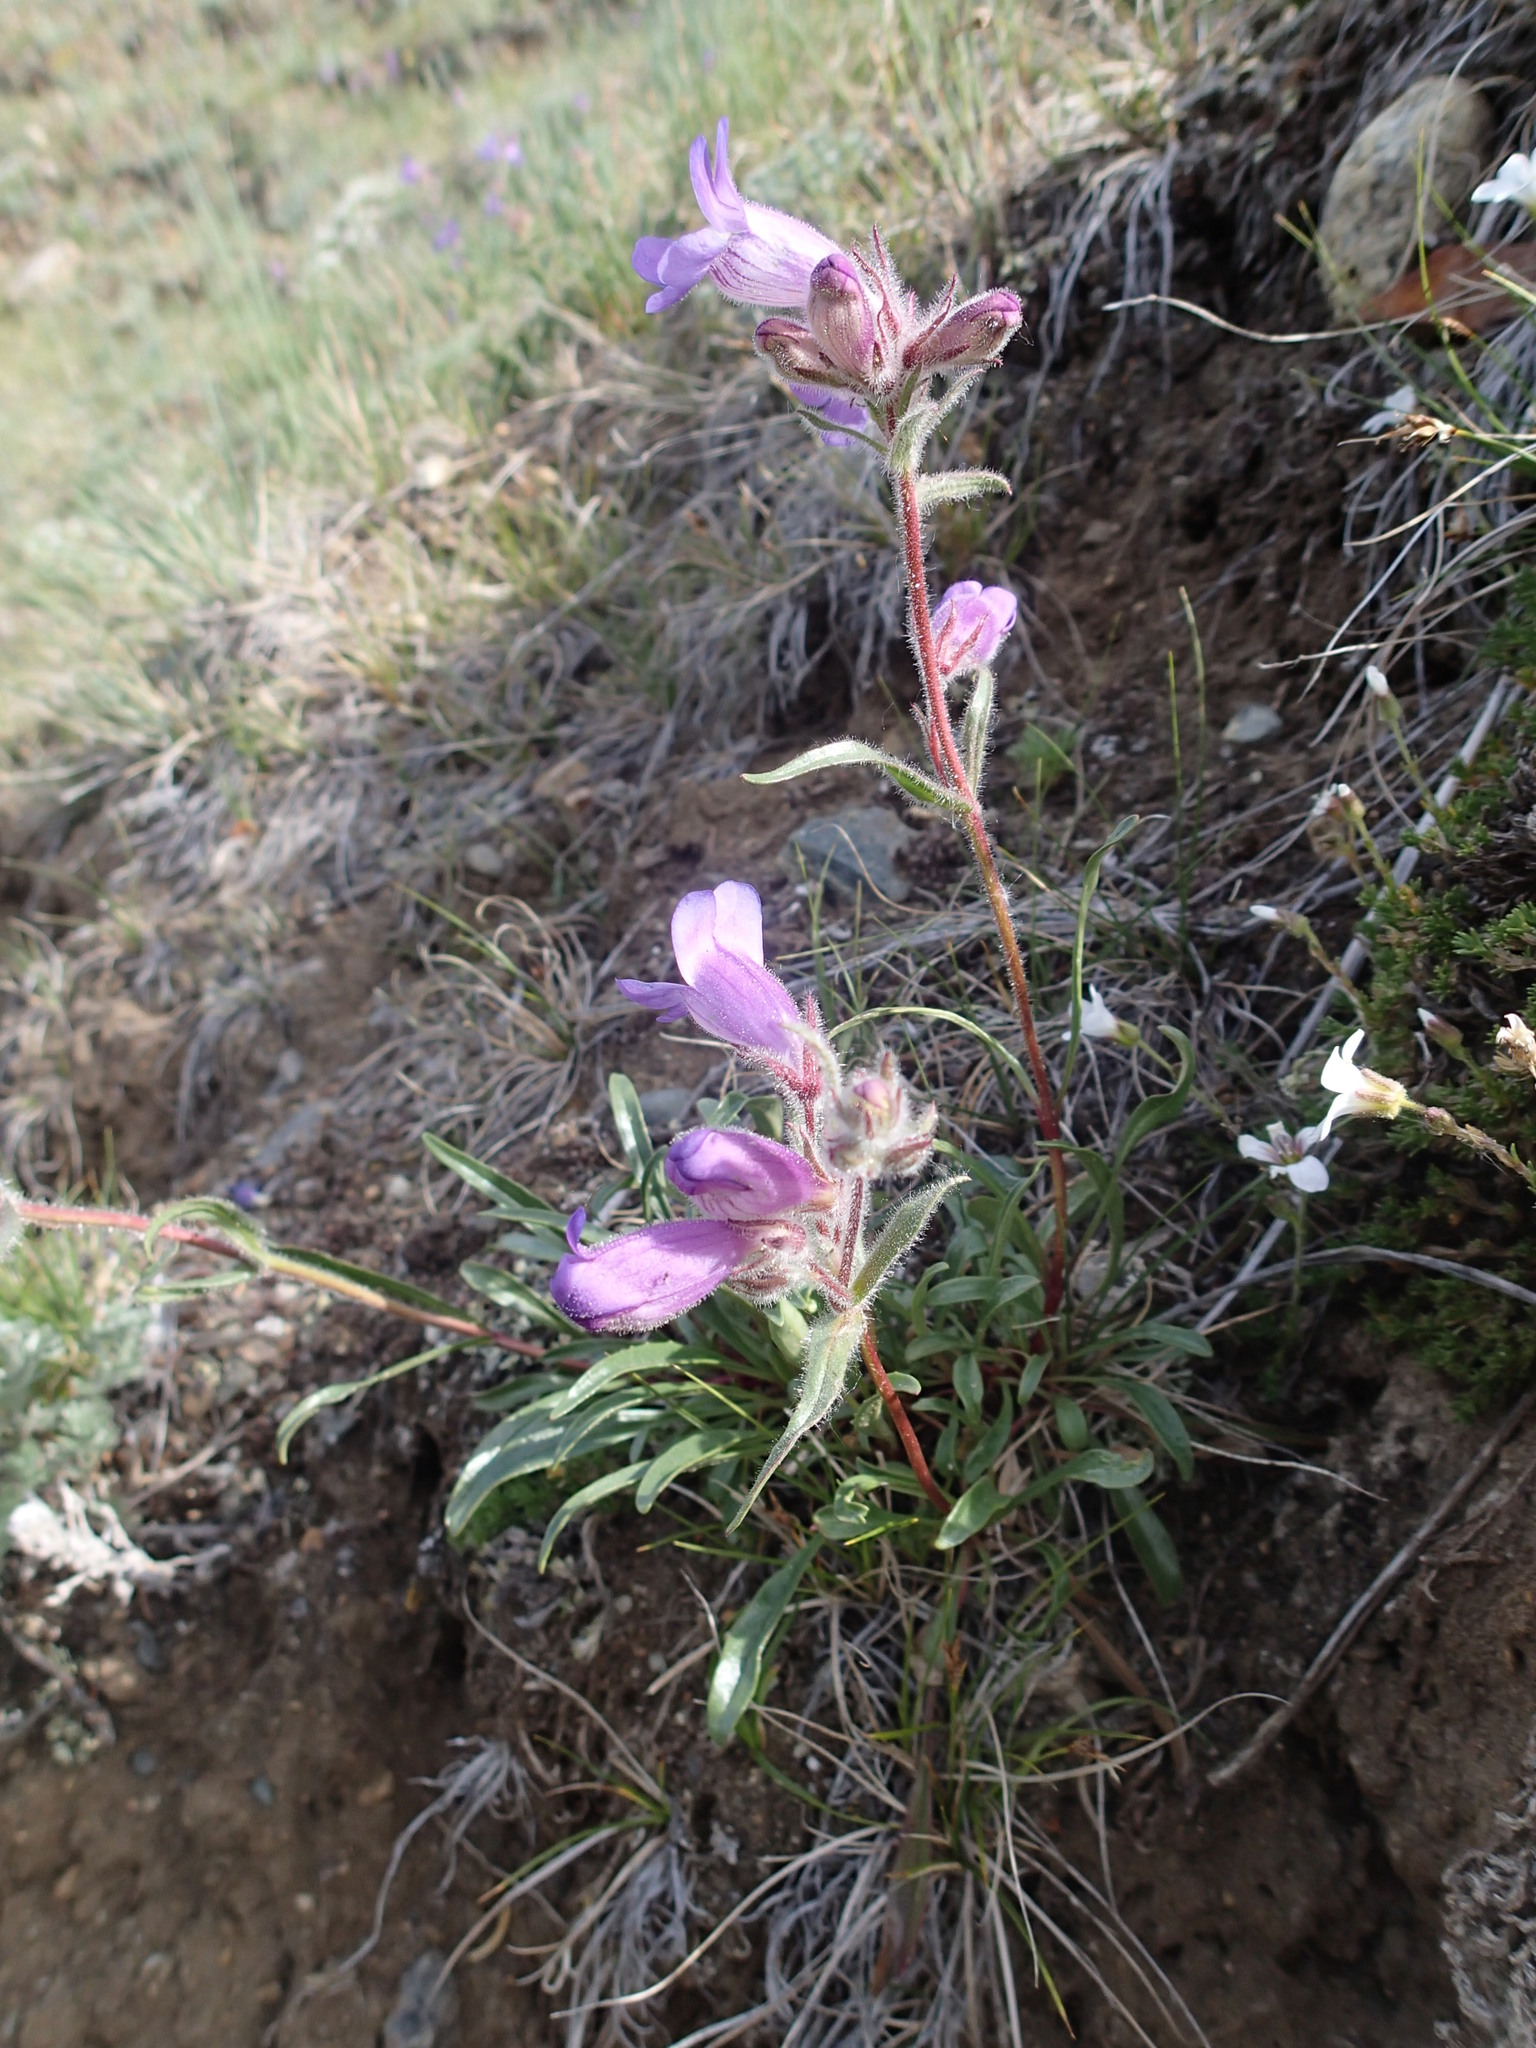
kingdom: Plantae
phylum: Tracheophyta
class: Magnoliopsida
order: Lamiales
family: Plantaginaceae
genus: Penstemon
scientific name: Penstemon gormanii
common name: Gorman's beardtongue
